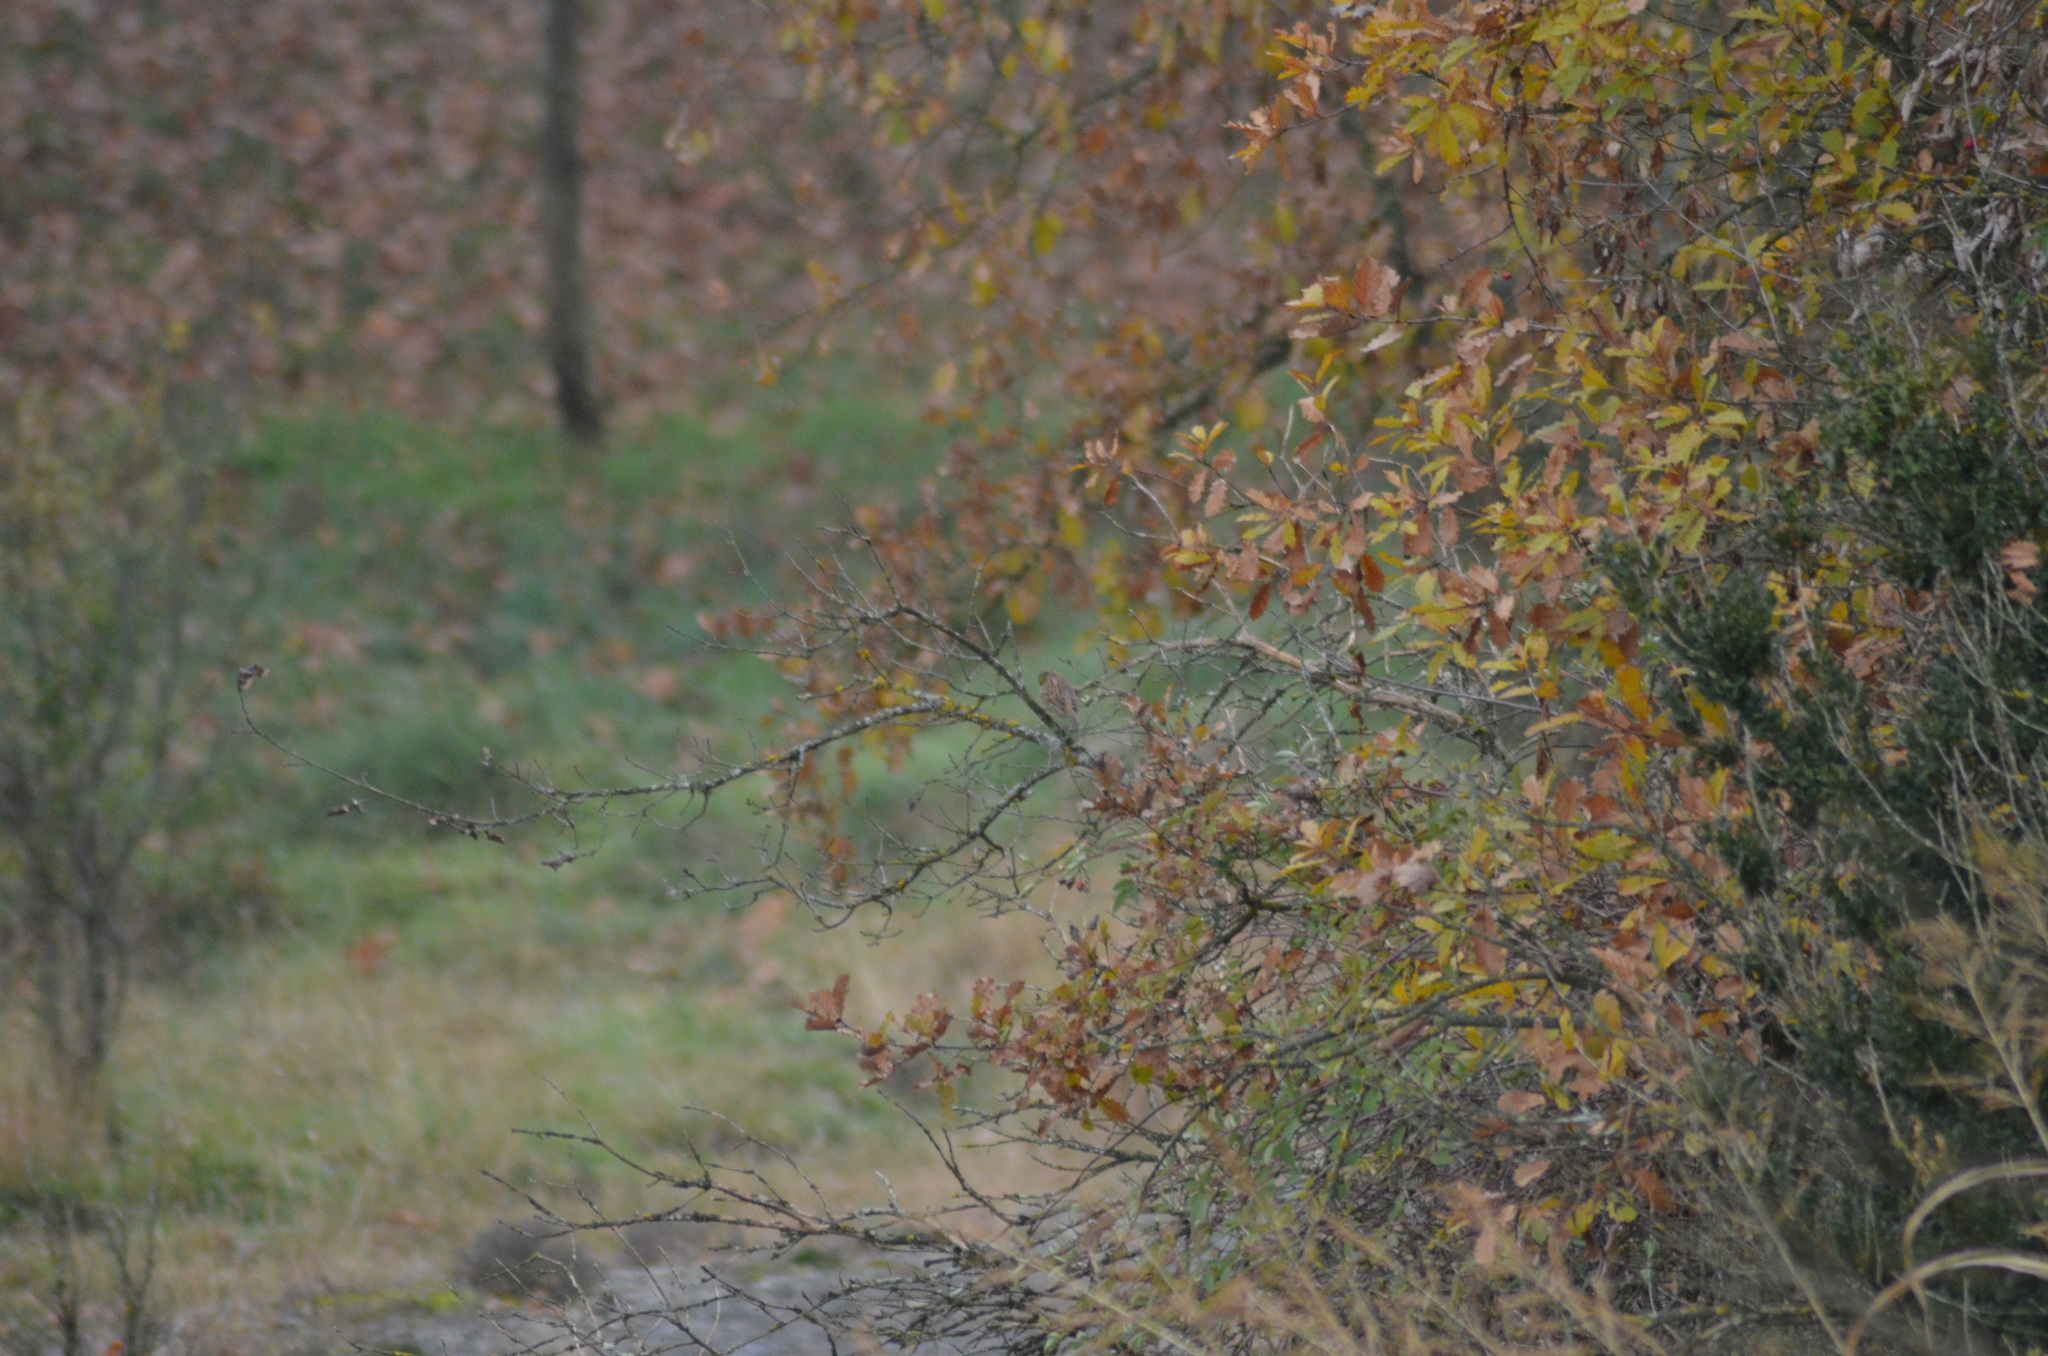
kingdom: Animalia
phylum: Chordata
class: Aves
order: Passeriformes
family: Emberizidae
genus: Emberiza
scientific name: Emberiza cirlus
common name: Cirl bunting
